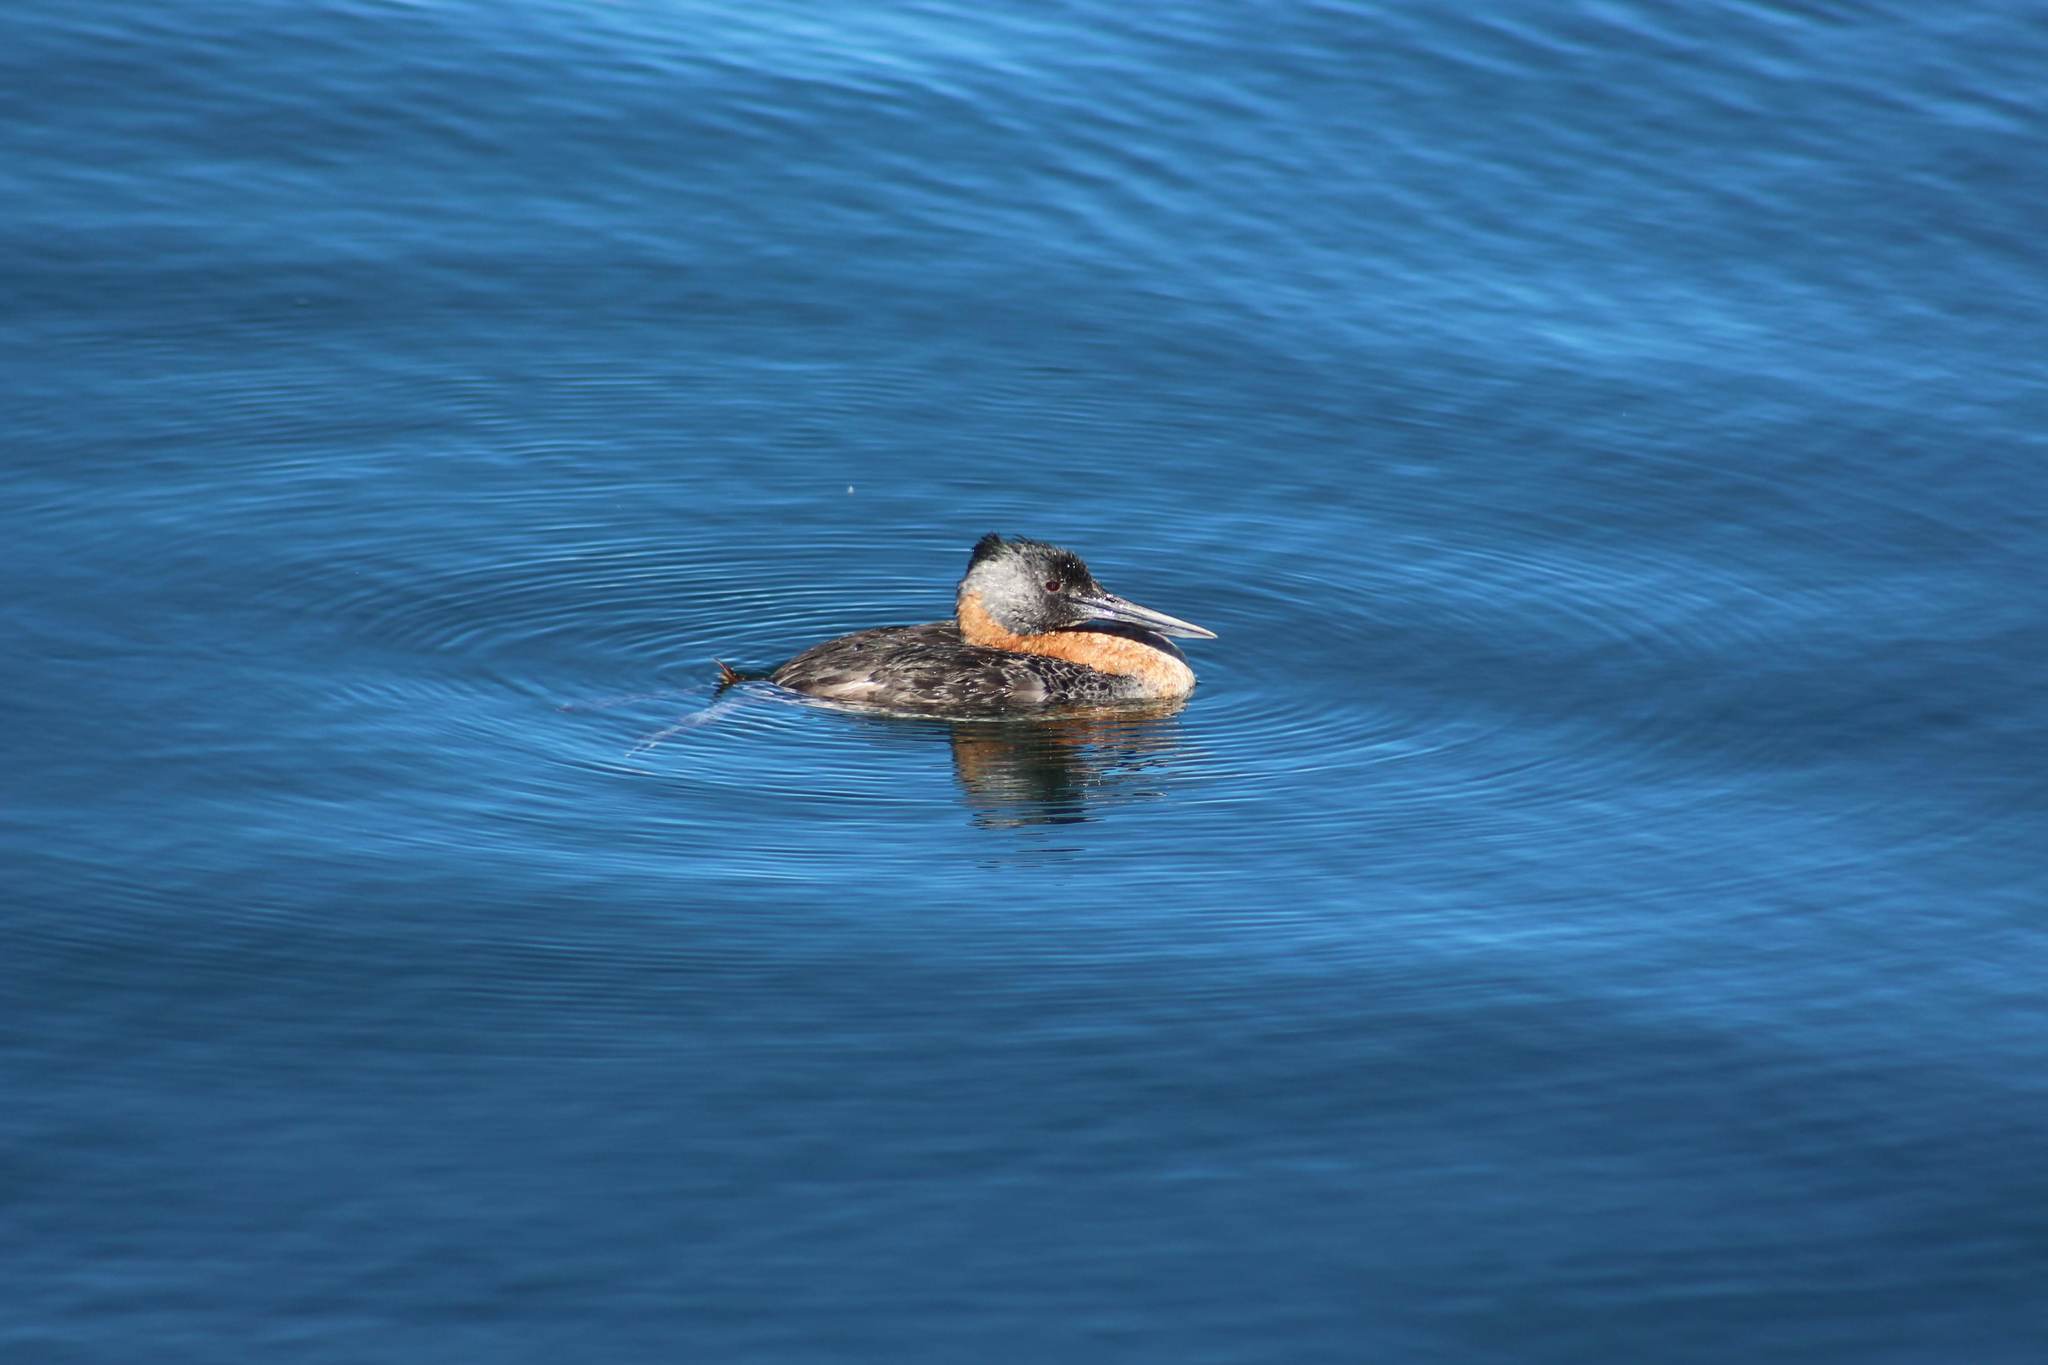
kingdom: Animalia
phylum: Chordata
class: Aves
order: Podicipediformes
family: Podicipedidae
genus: Podiceps
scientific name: Podiceps major
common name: Great grebe
